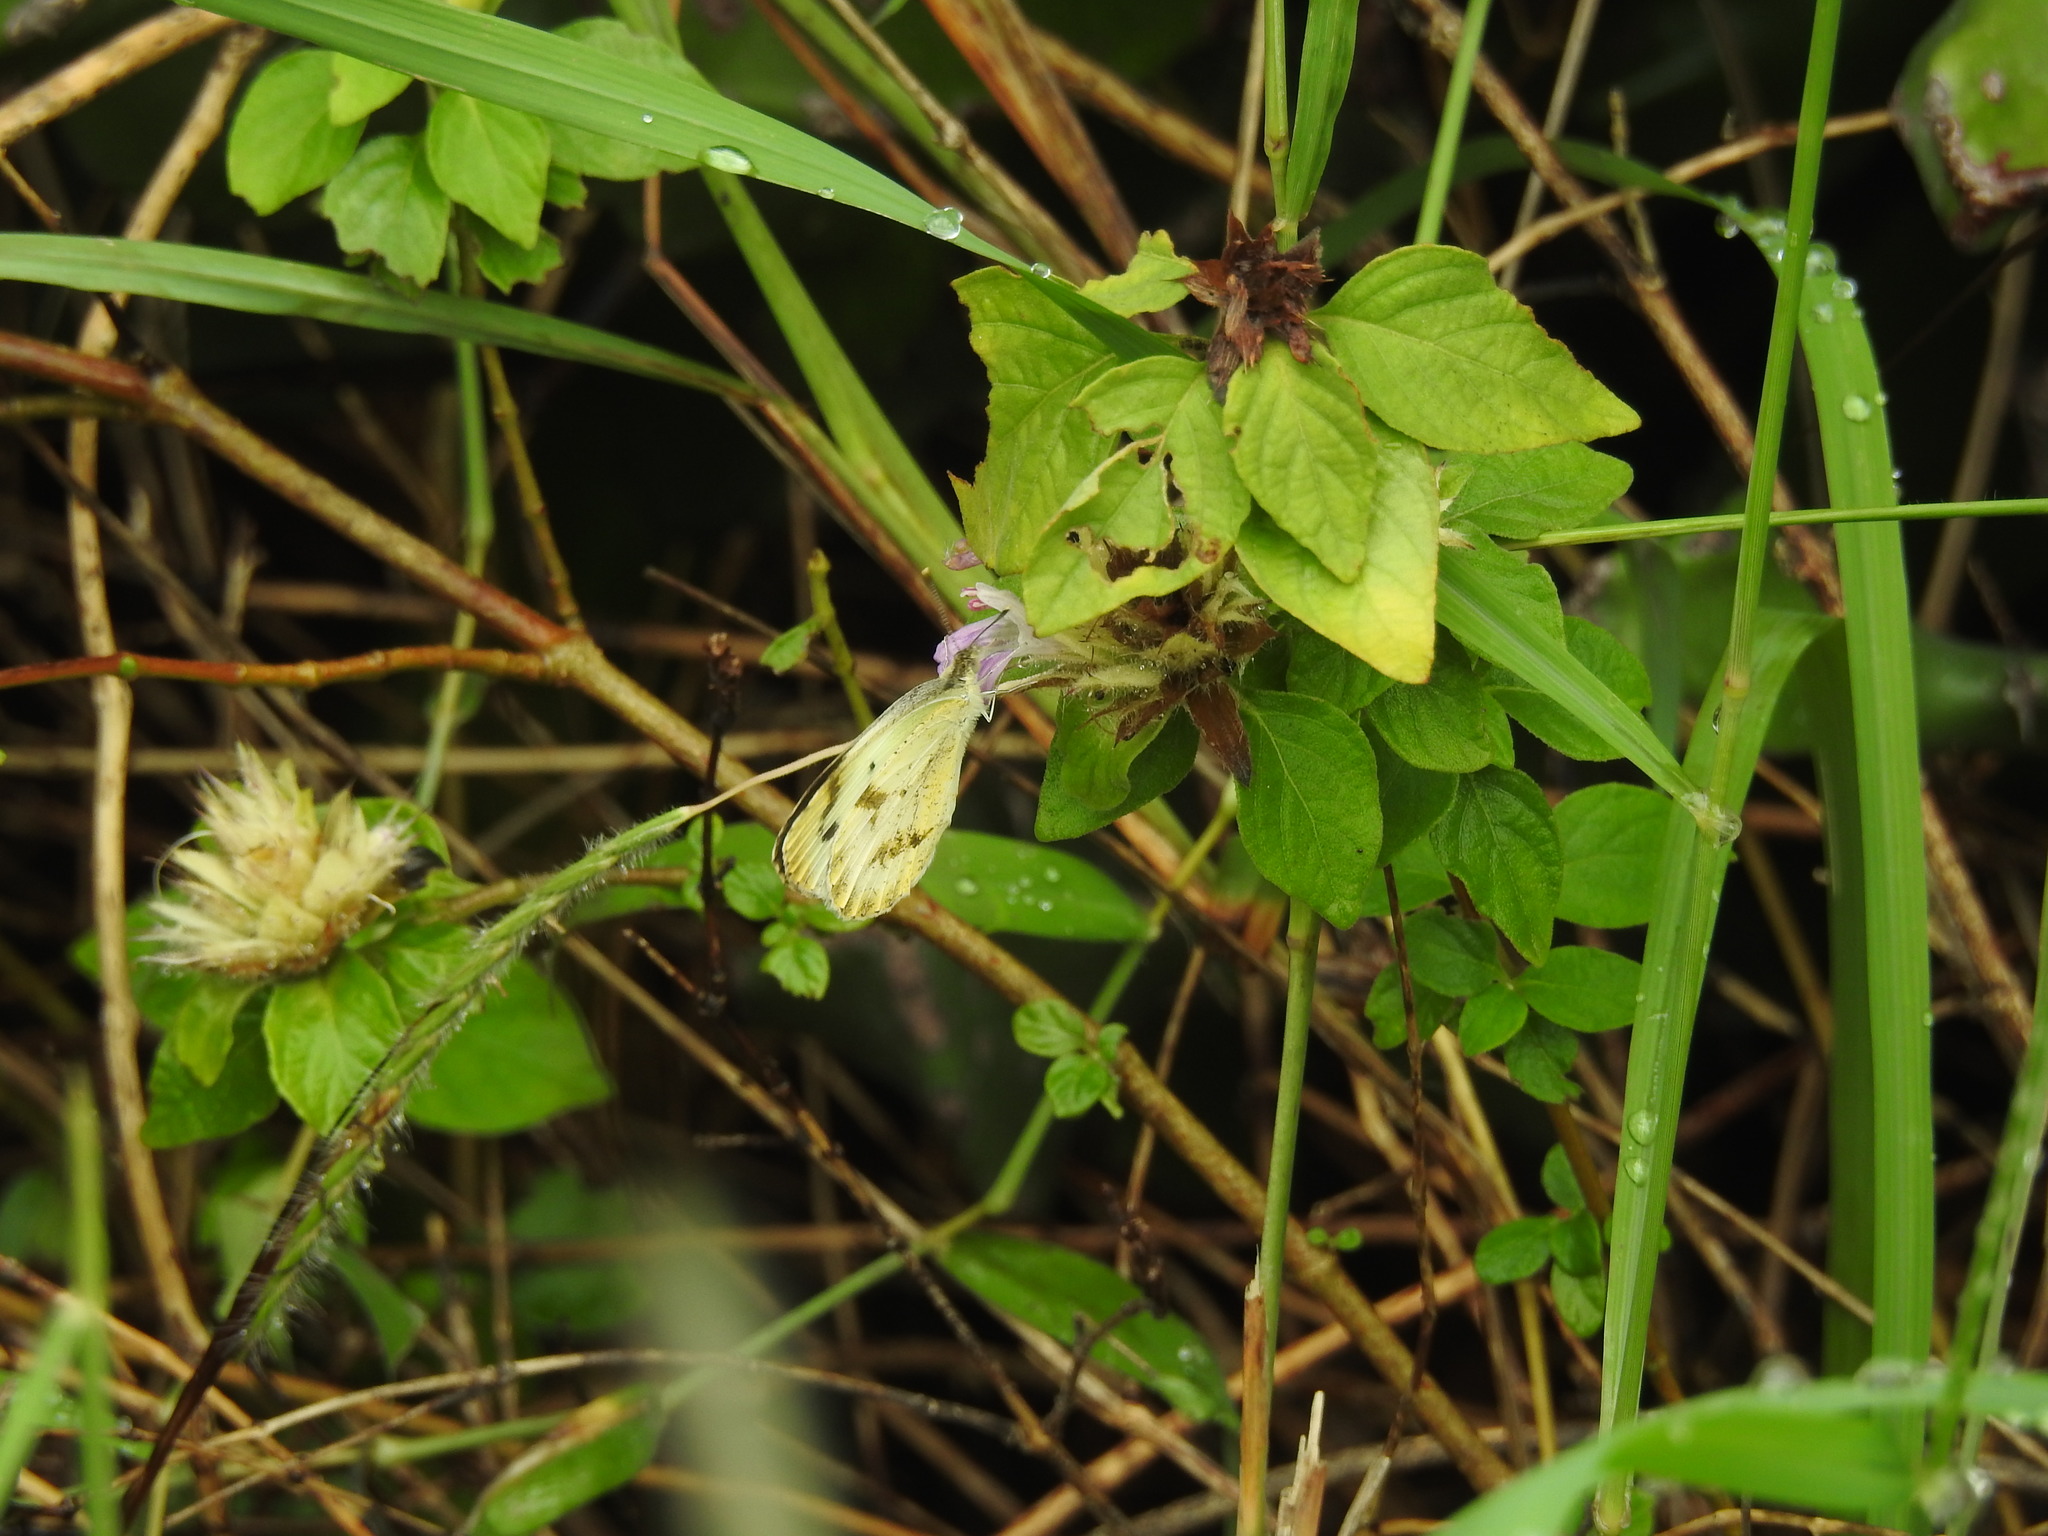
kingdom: Animalia
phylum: Arthropoda
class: Insecta
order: Lepidoptera
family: Pieridae
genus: Colotis
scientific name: Colotis aurora
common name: Plain orange-tip
